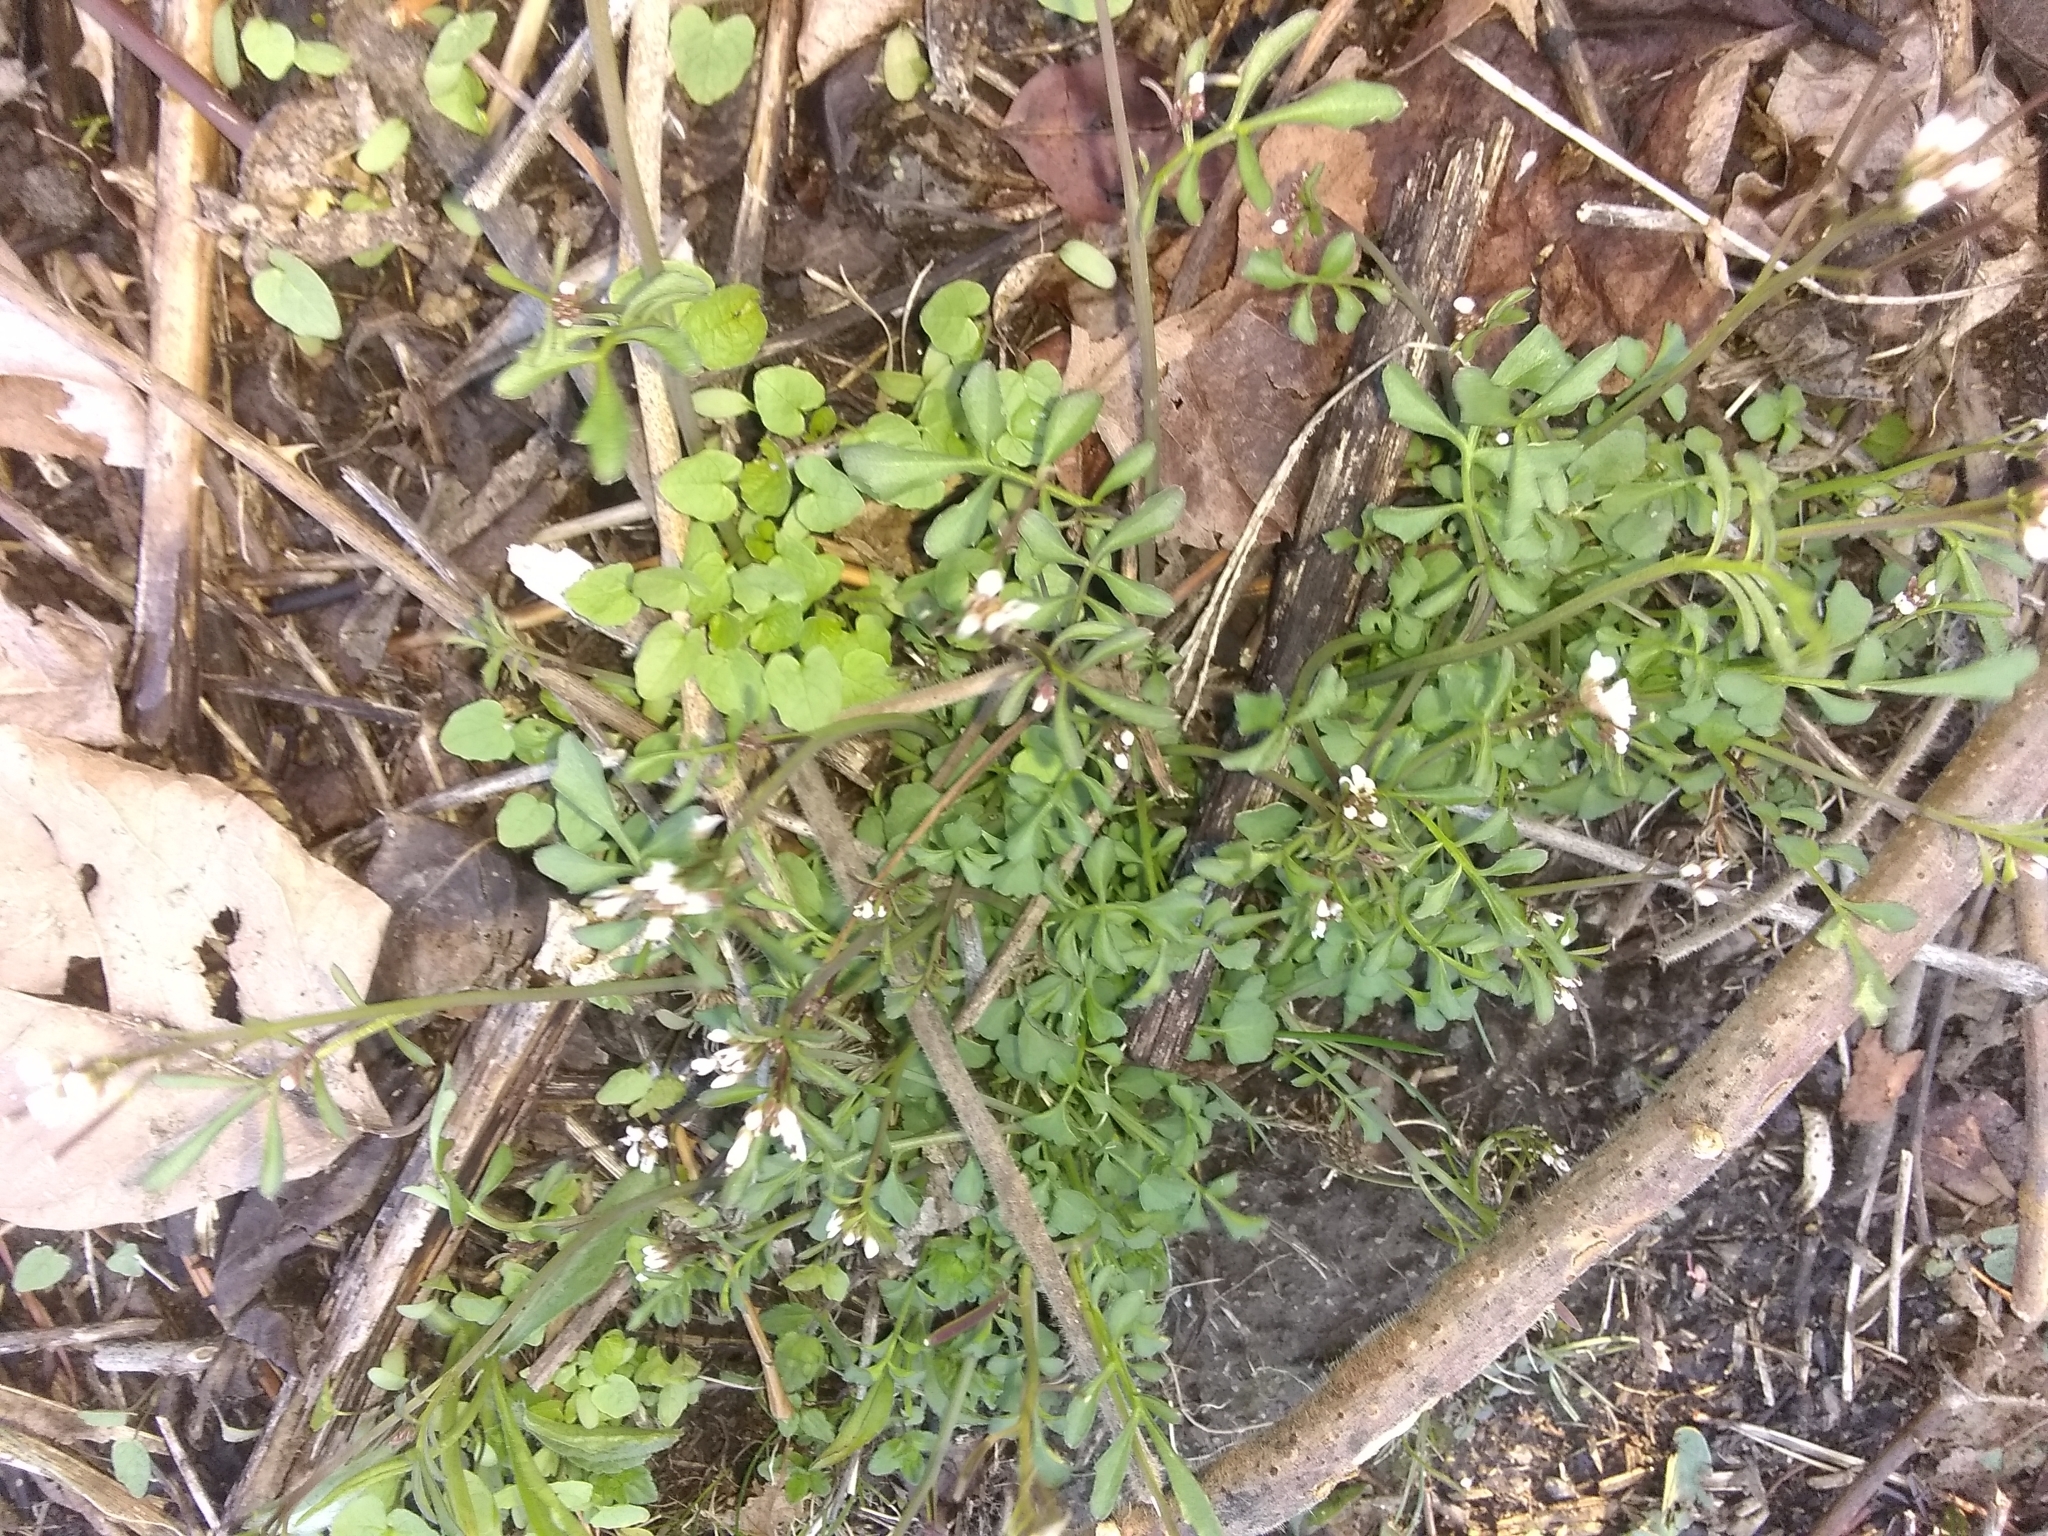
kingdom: Plantae
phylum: Tracheophyta
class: Magnoliopsida
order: Brassicales
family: Brassicaceae
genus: Cardamine
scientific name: Cardamine hirsuta
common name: Hairy bittercress
